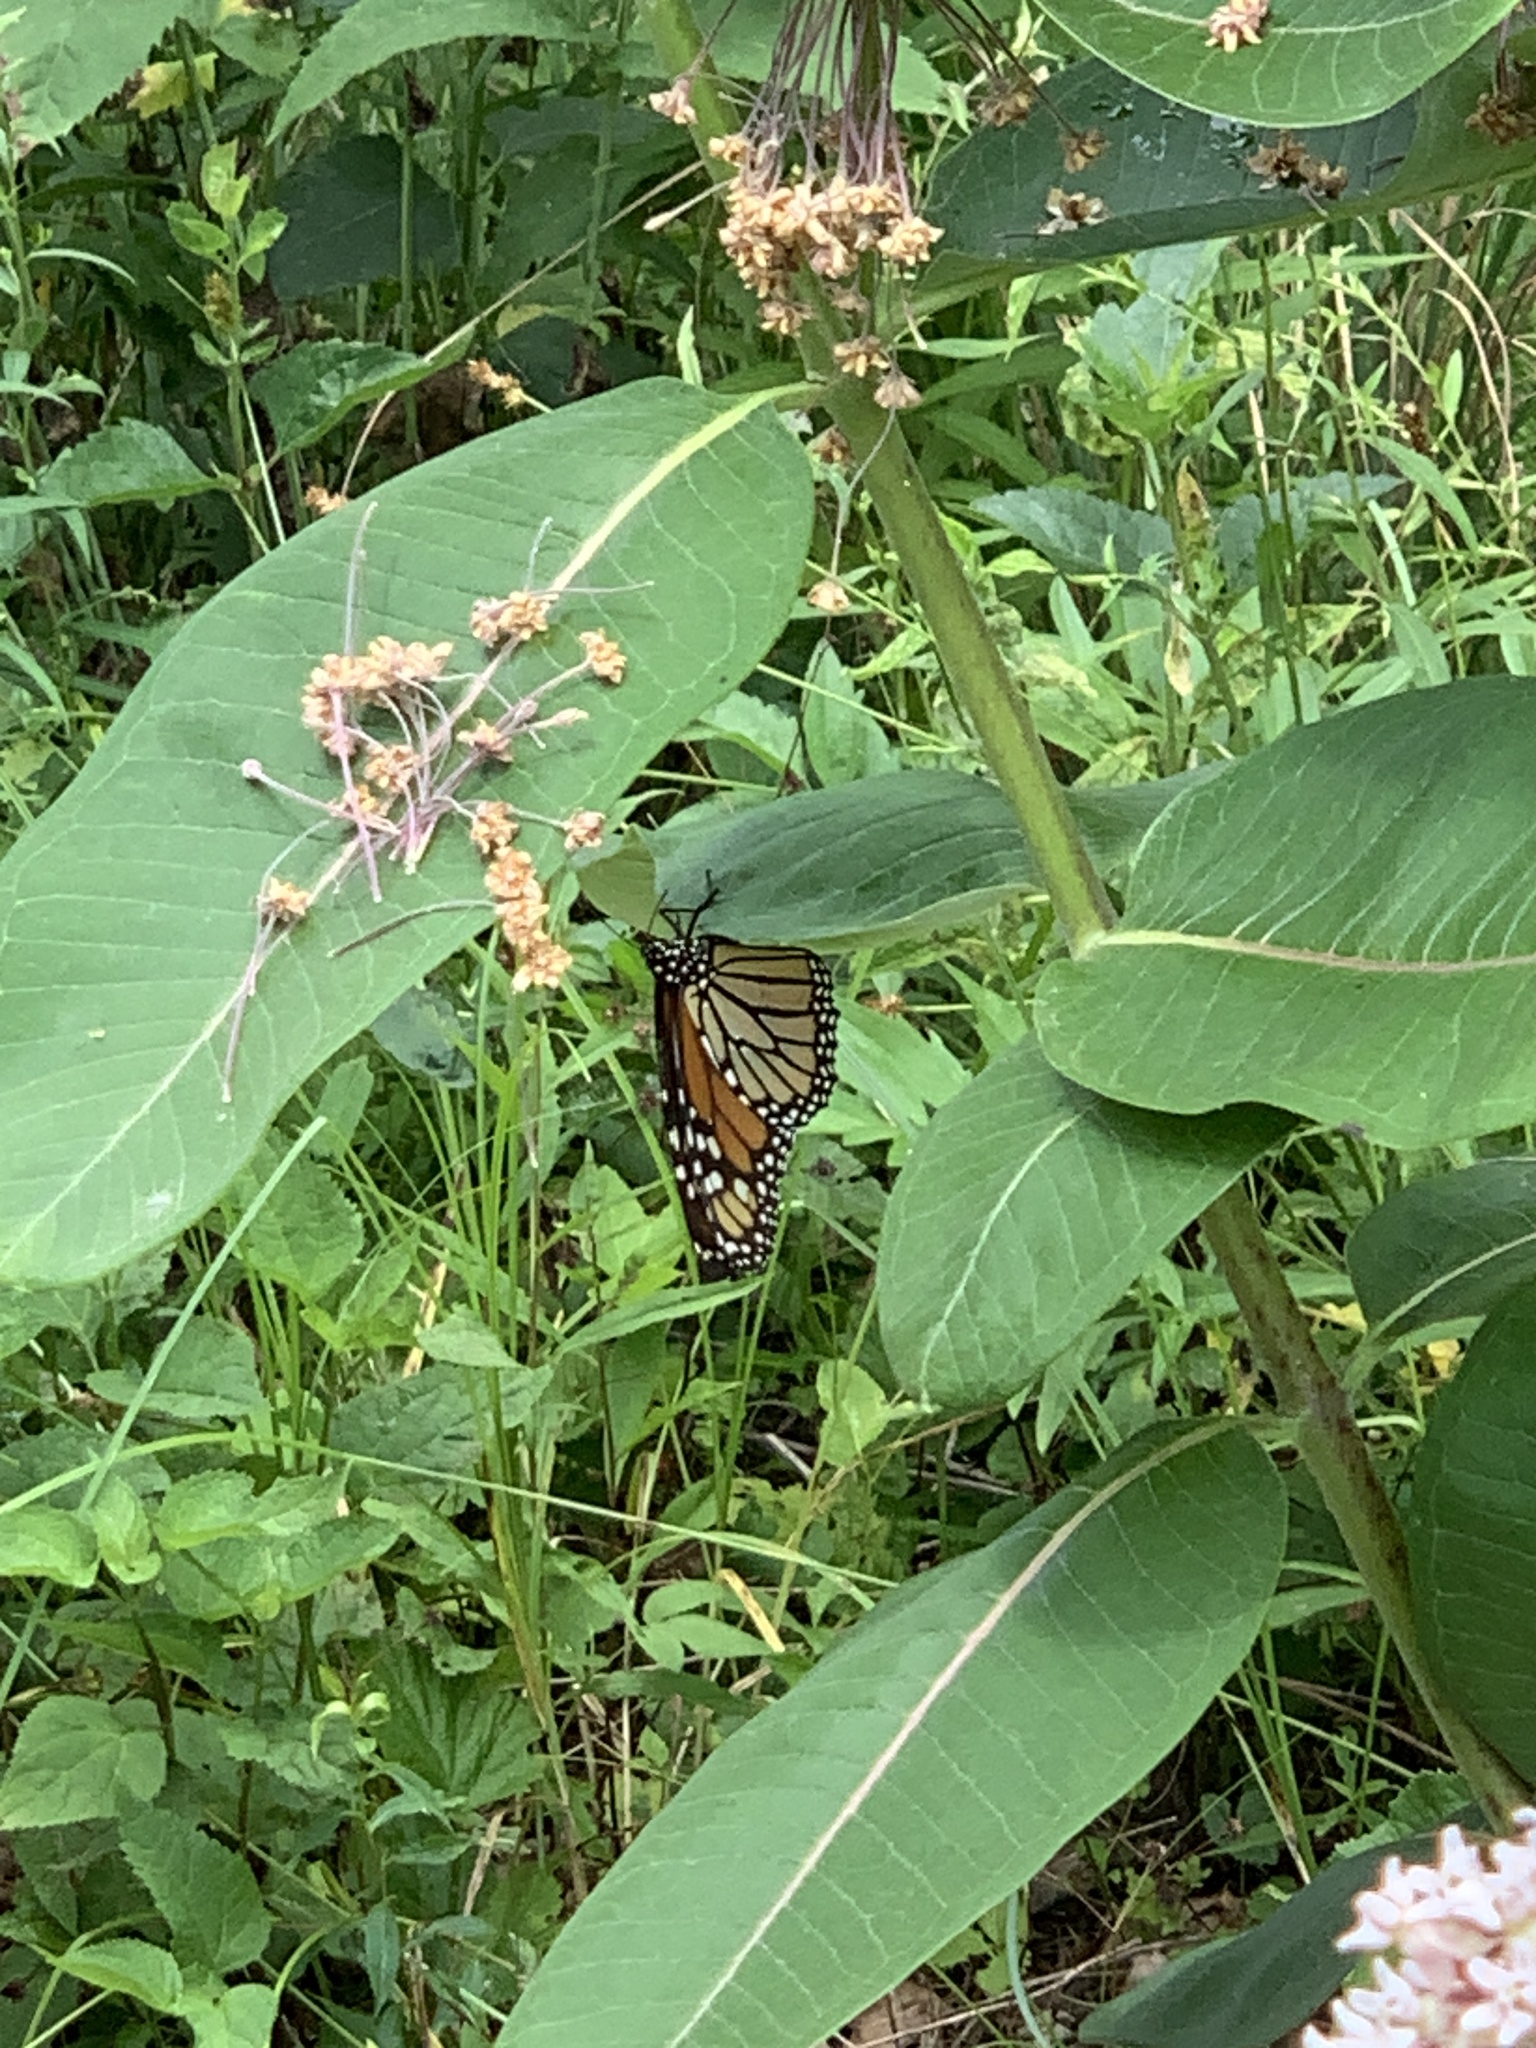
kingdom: Animalia
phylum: Arthropoda
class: Insecta
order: Lepidoptera
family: Nymphalidae
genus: Danaus
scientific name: Danaus plexippus
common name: Monarch
